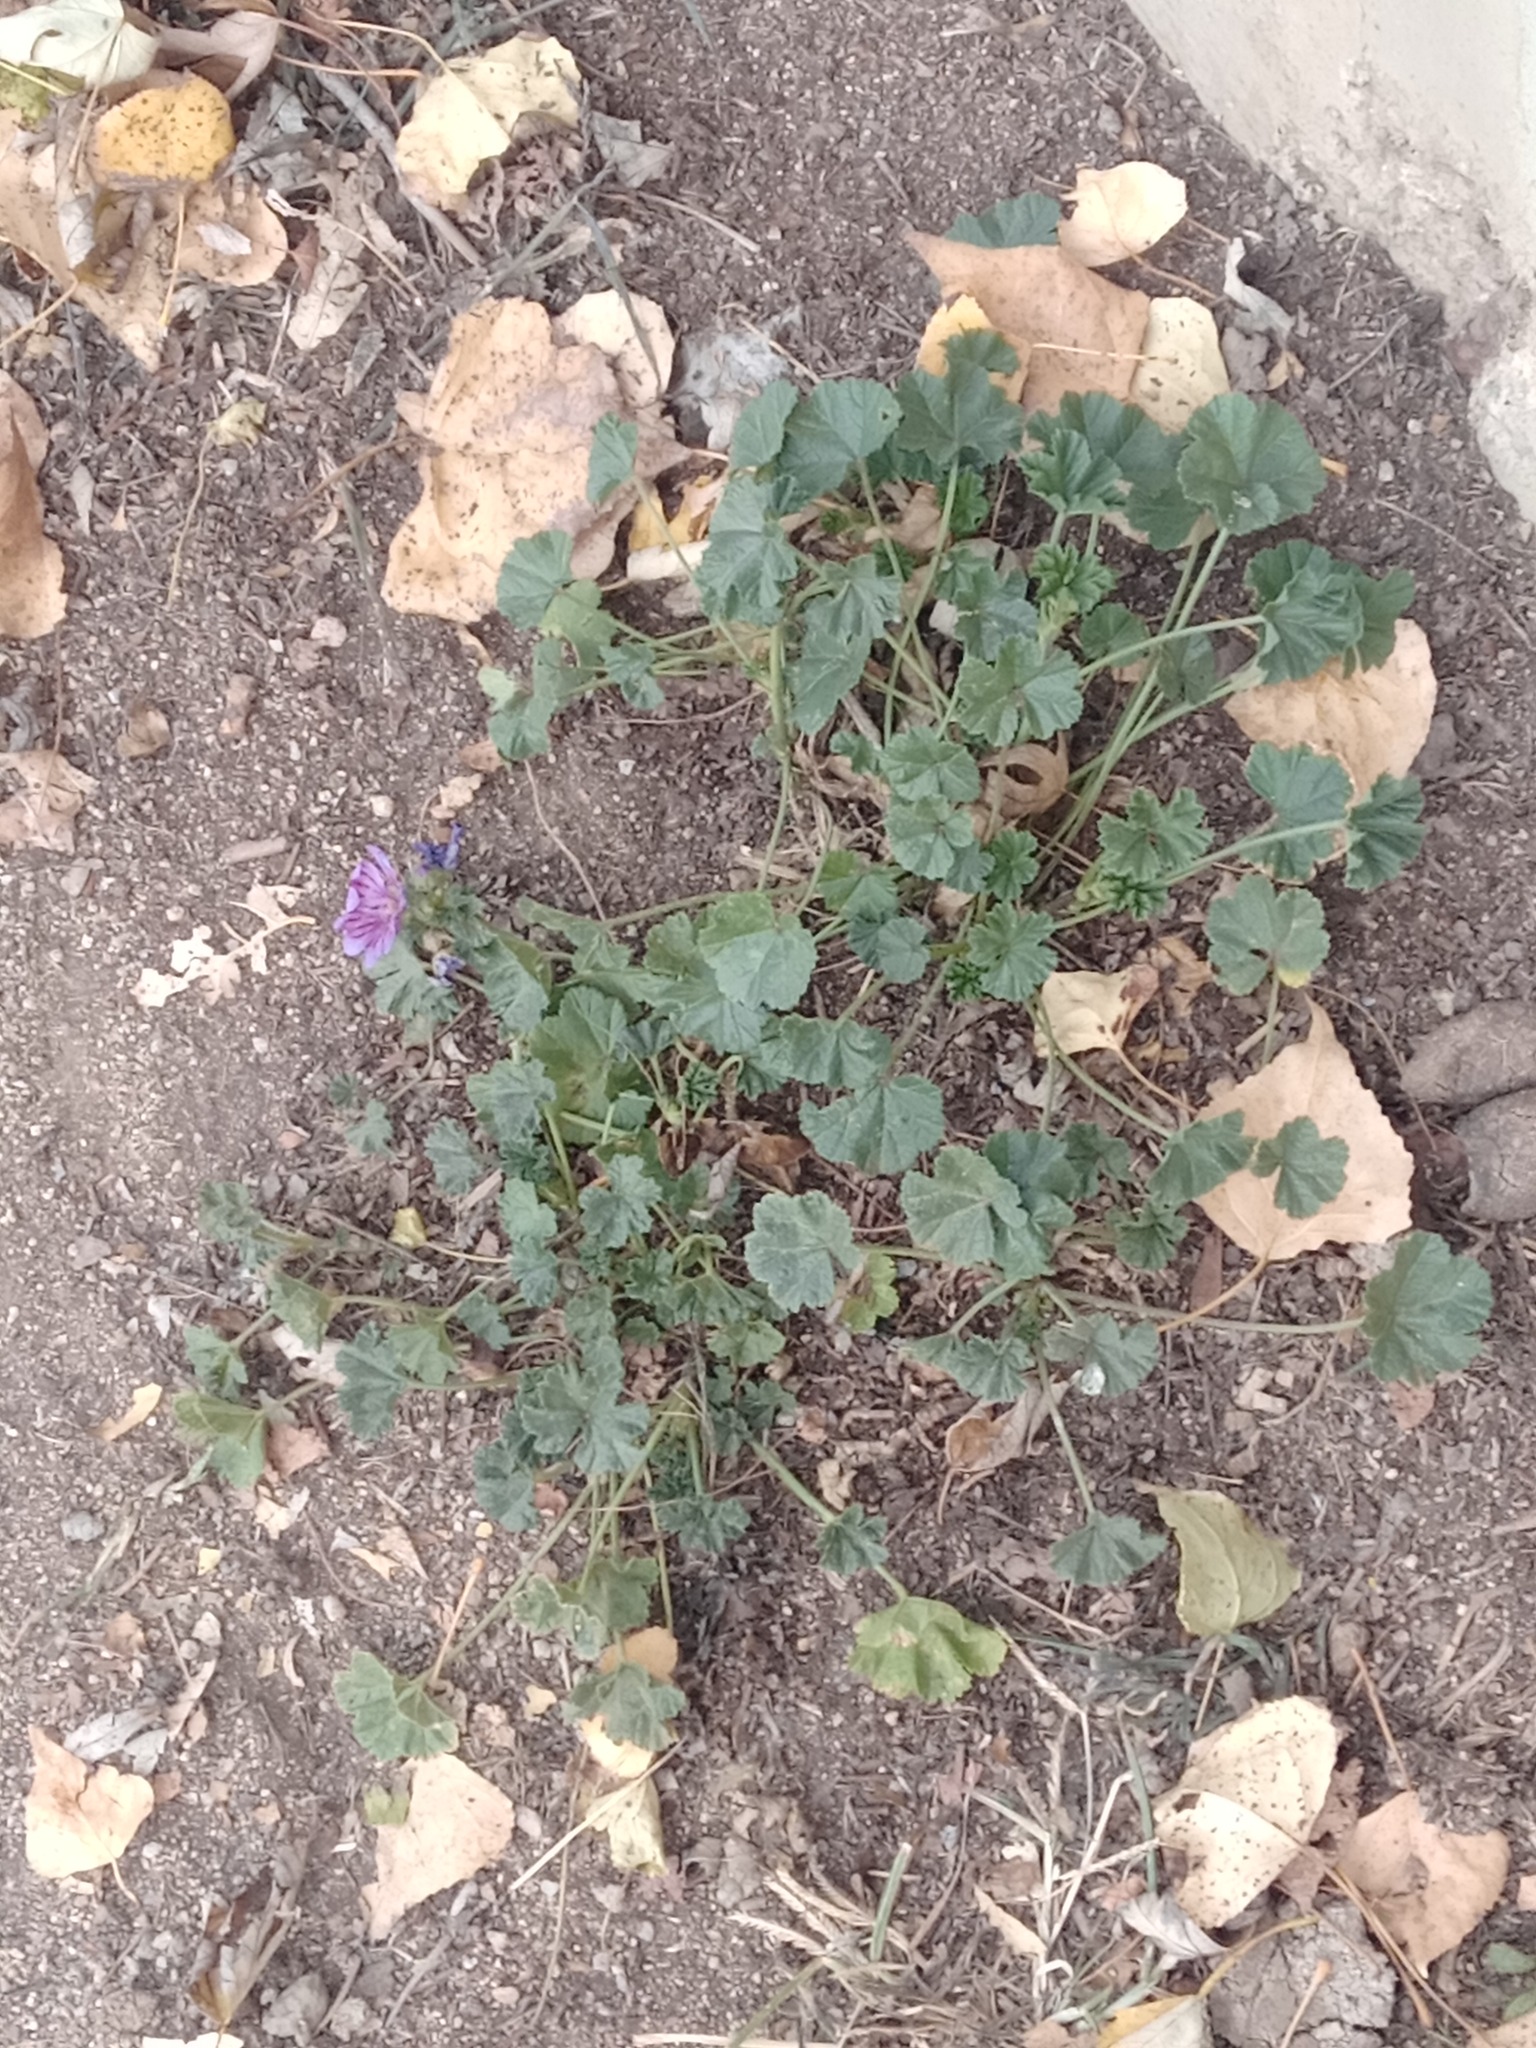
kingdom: Plantae
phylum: Tracheophyta
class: Magnoliopsida
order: Malvales
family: Malvaceae
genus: Malva
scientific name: Malva sylvestris
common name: Common mallow
